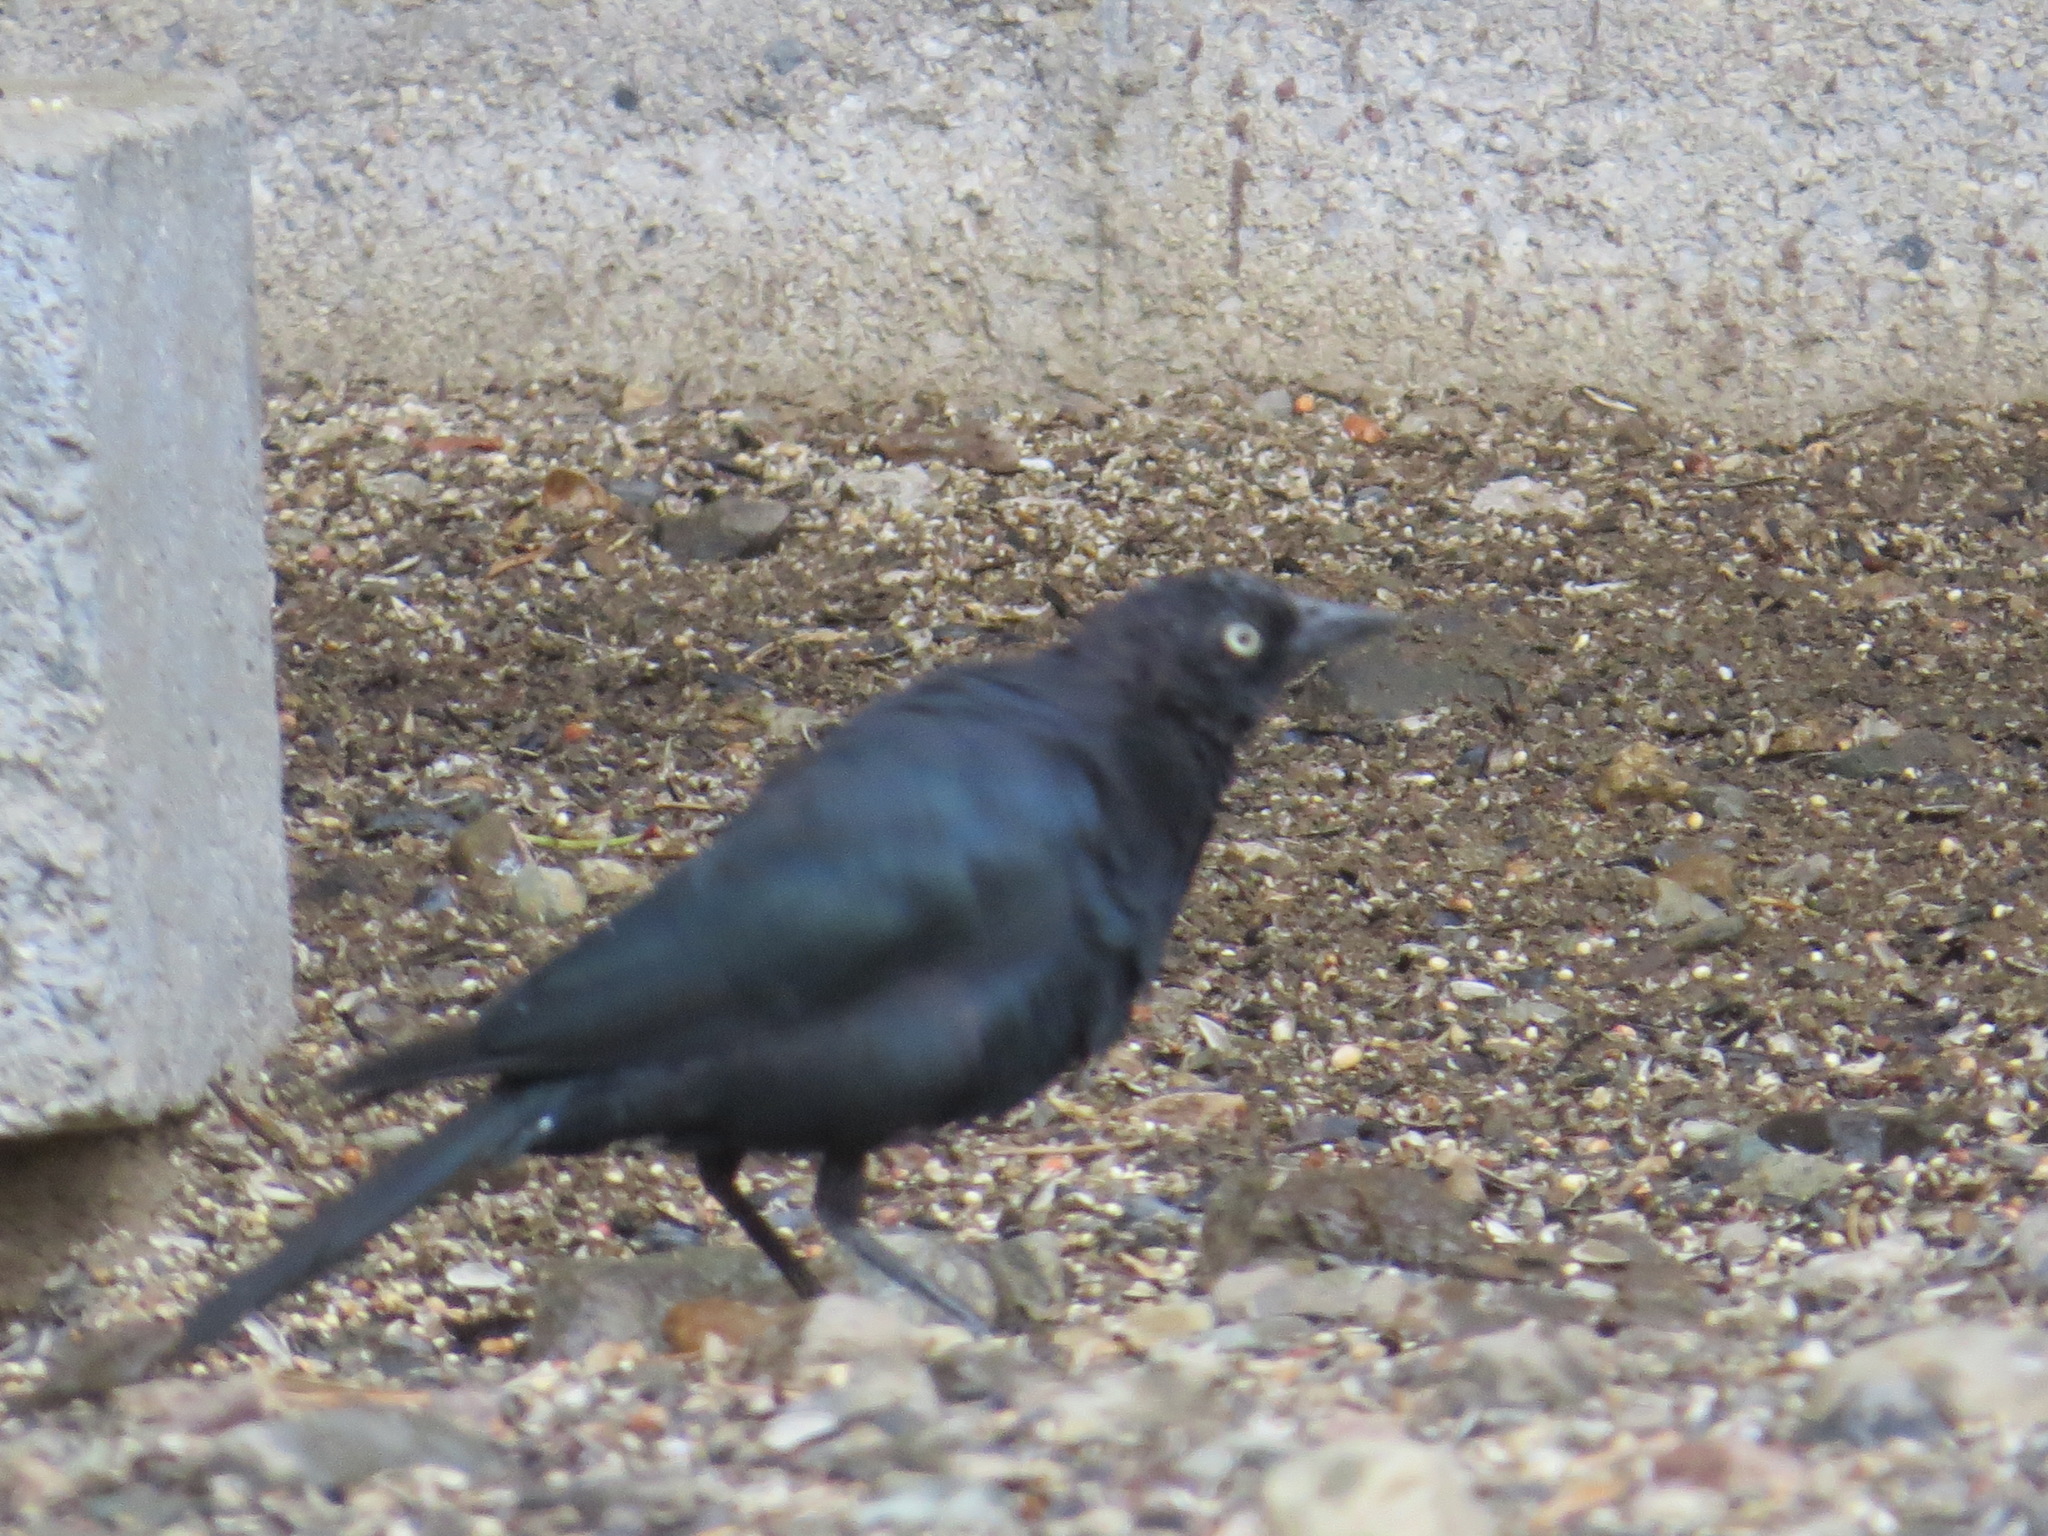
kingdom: Animalia
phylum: Chordata
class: Aves
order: Passeriformes
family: Icteridae
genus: Euphagus
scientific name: Euphagus cyanocephalus
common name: Brewer's blackbird
